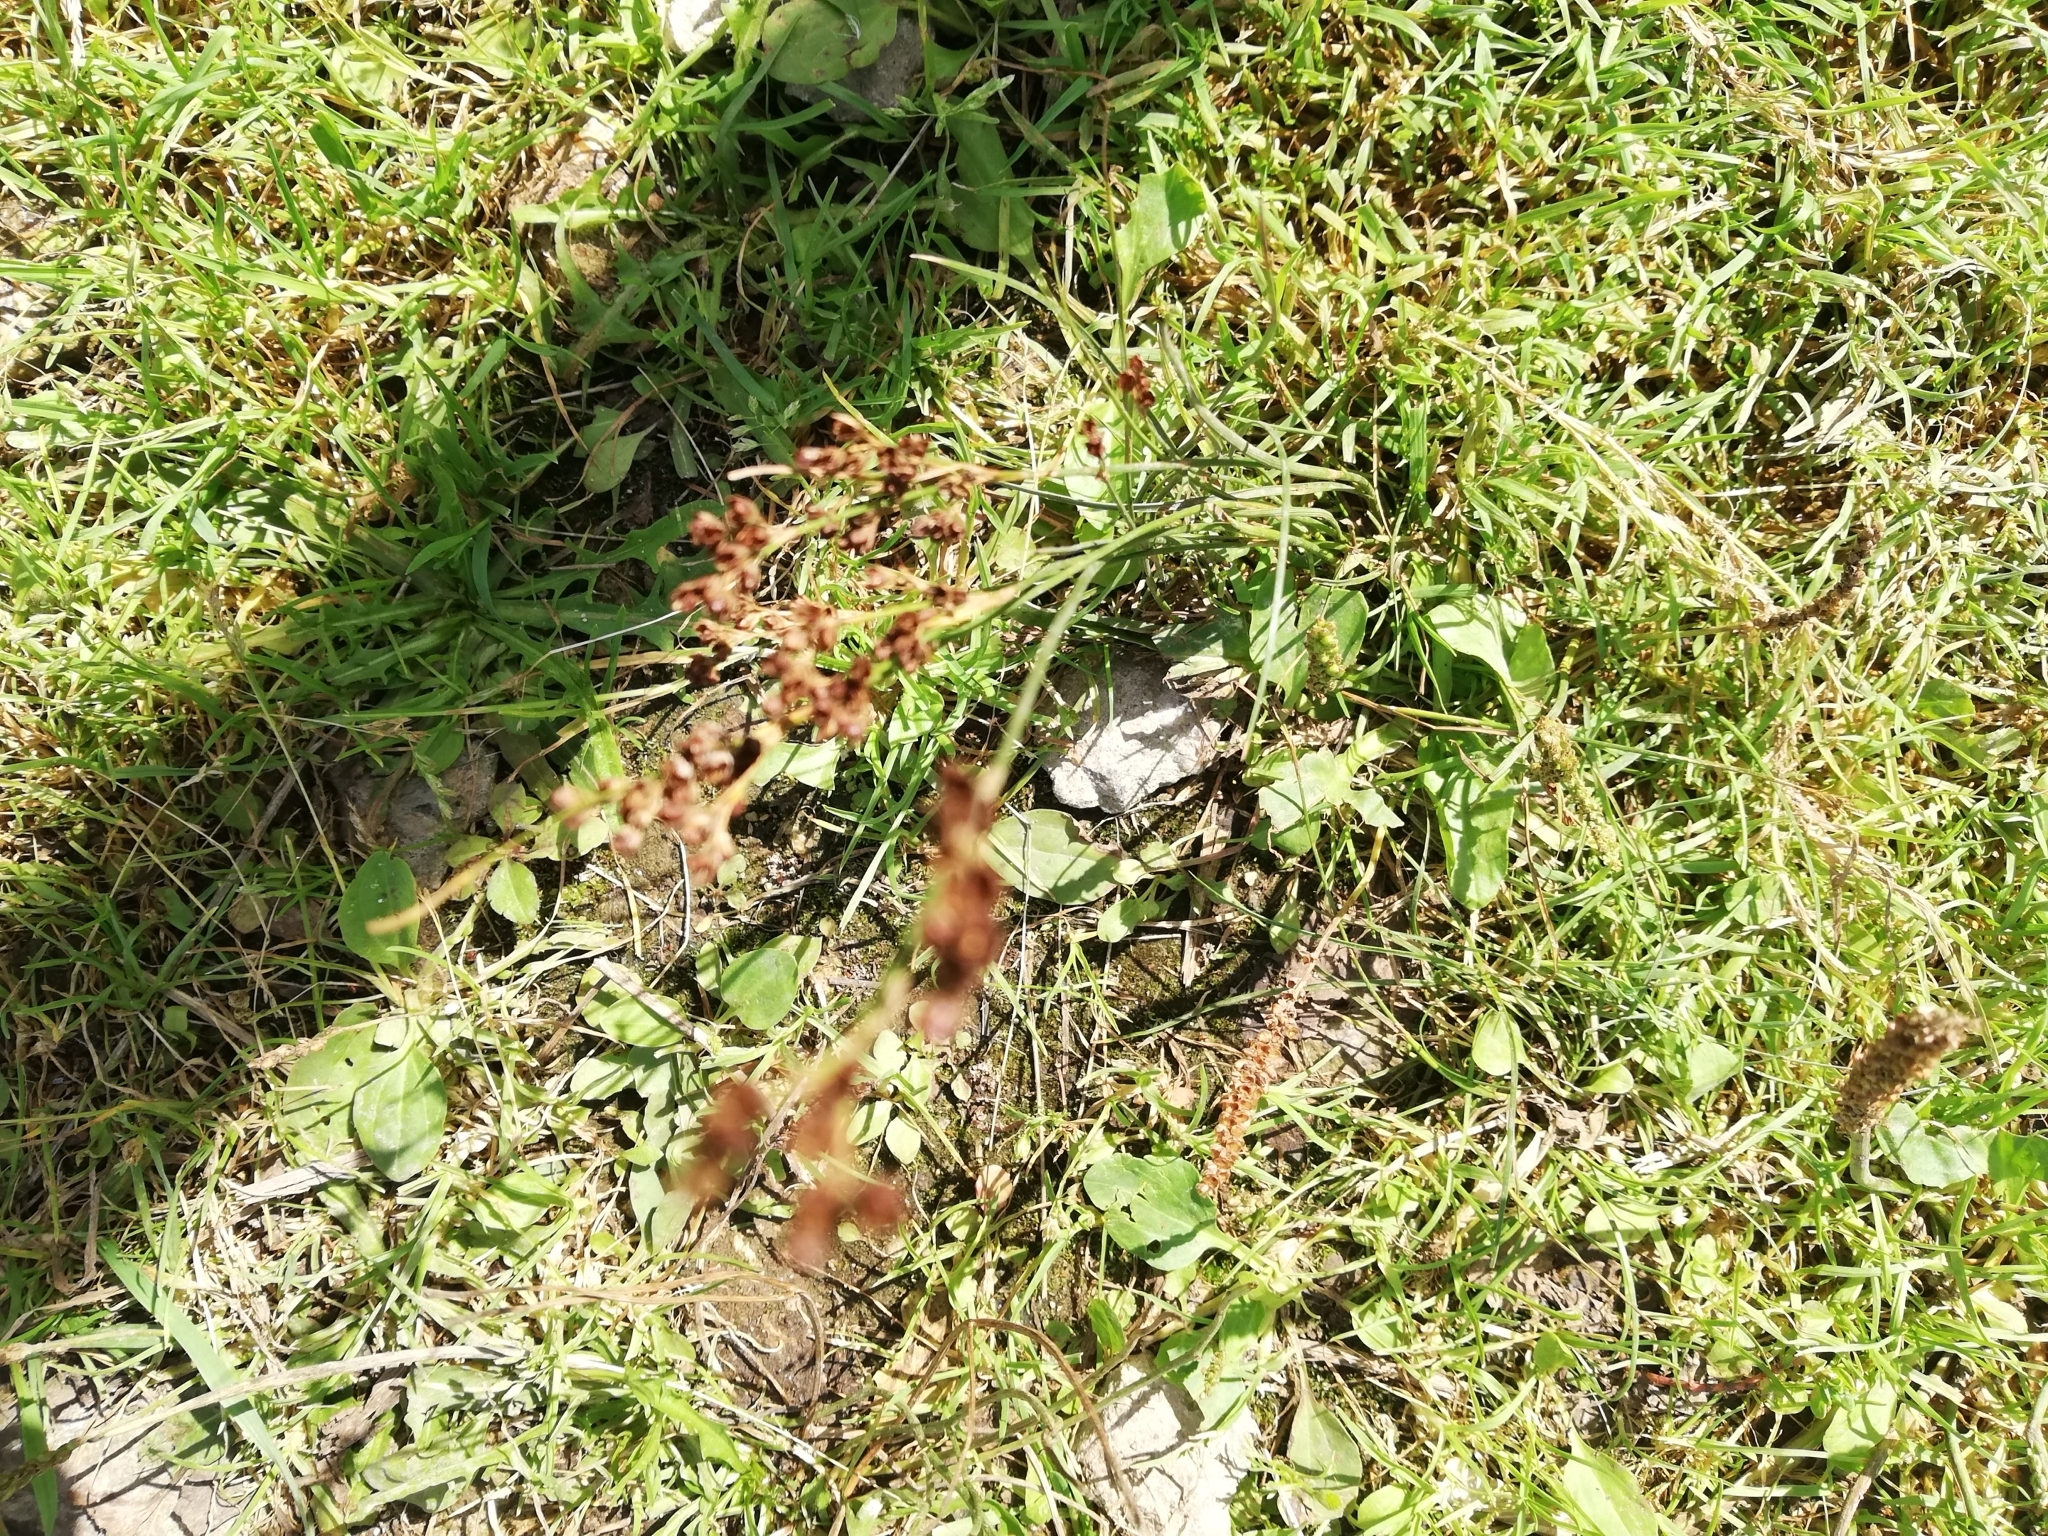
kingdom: Plantae
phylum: Tracheophyta
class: Liliopsida
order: Poales
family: Juncaceae
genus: Juncus
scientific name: Juncus compressus
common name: Round-fruited rush
